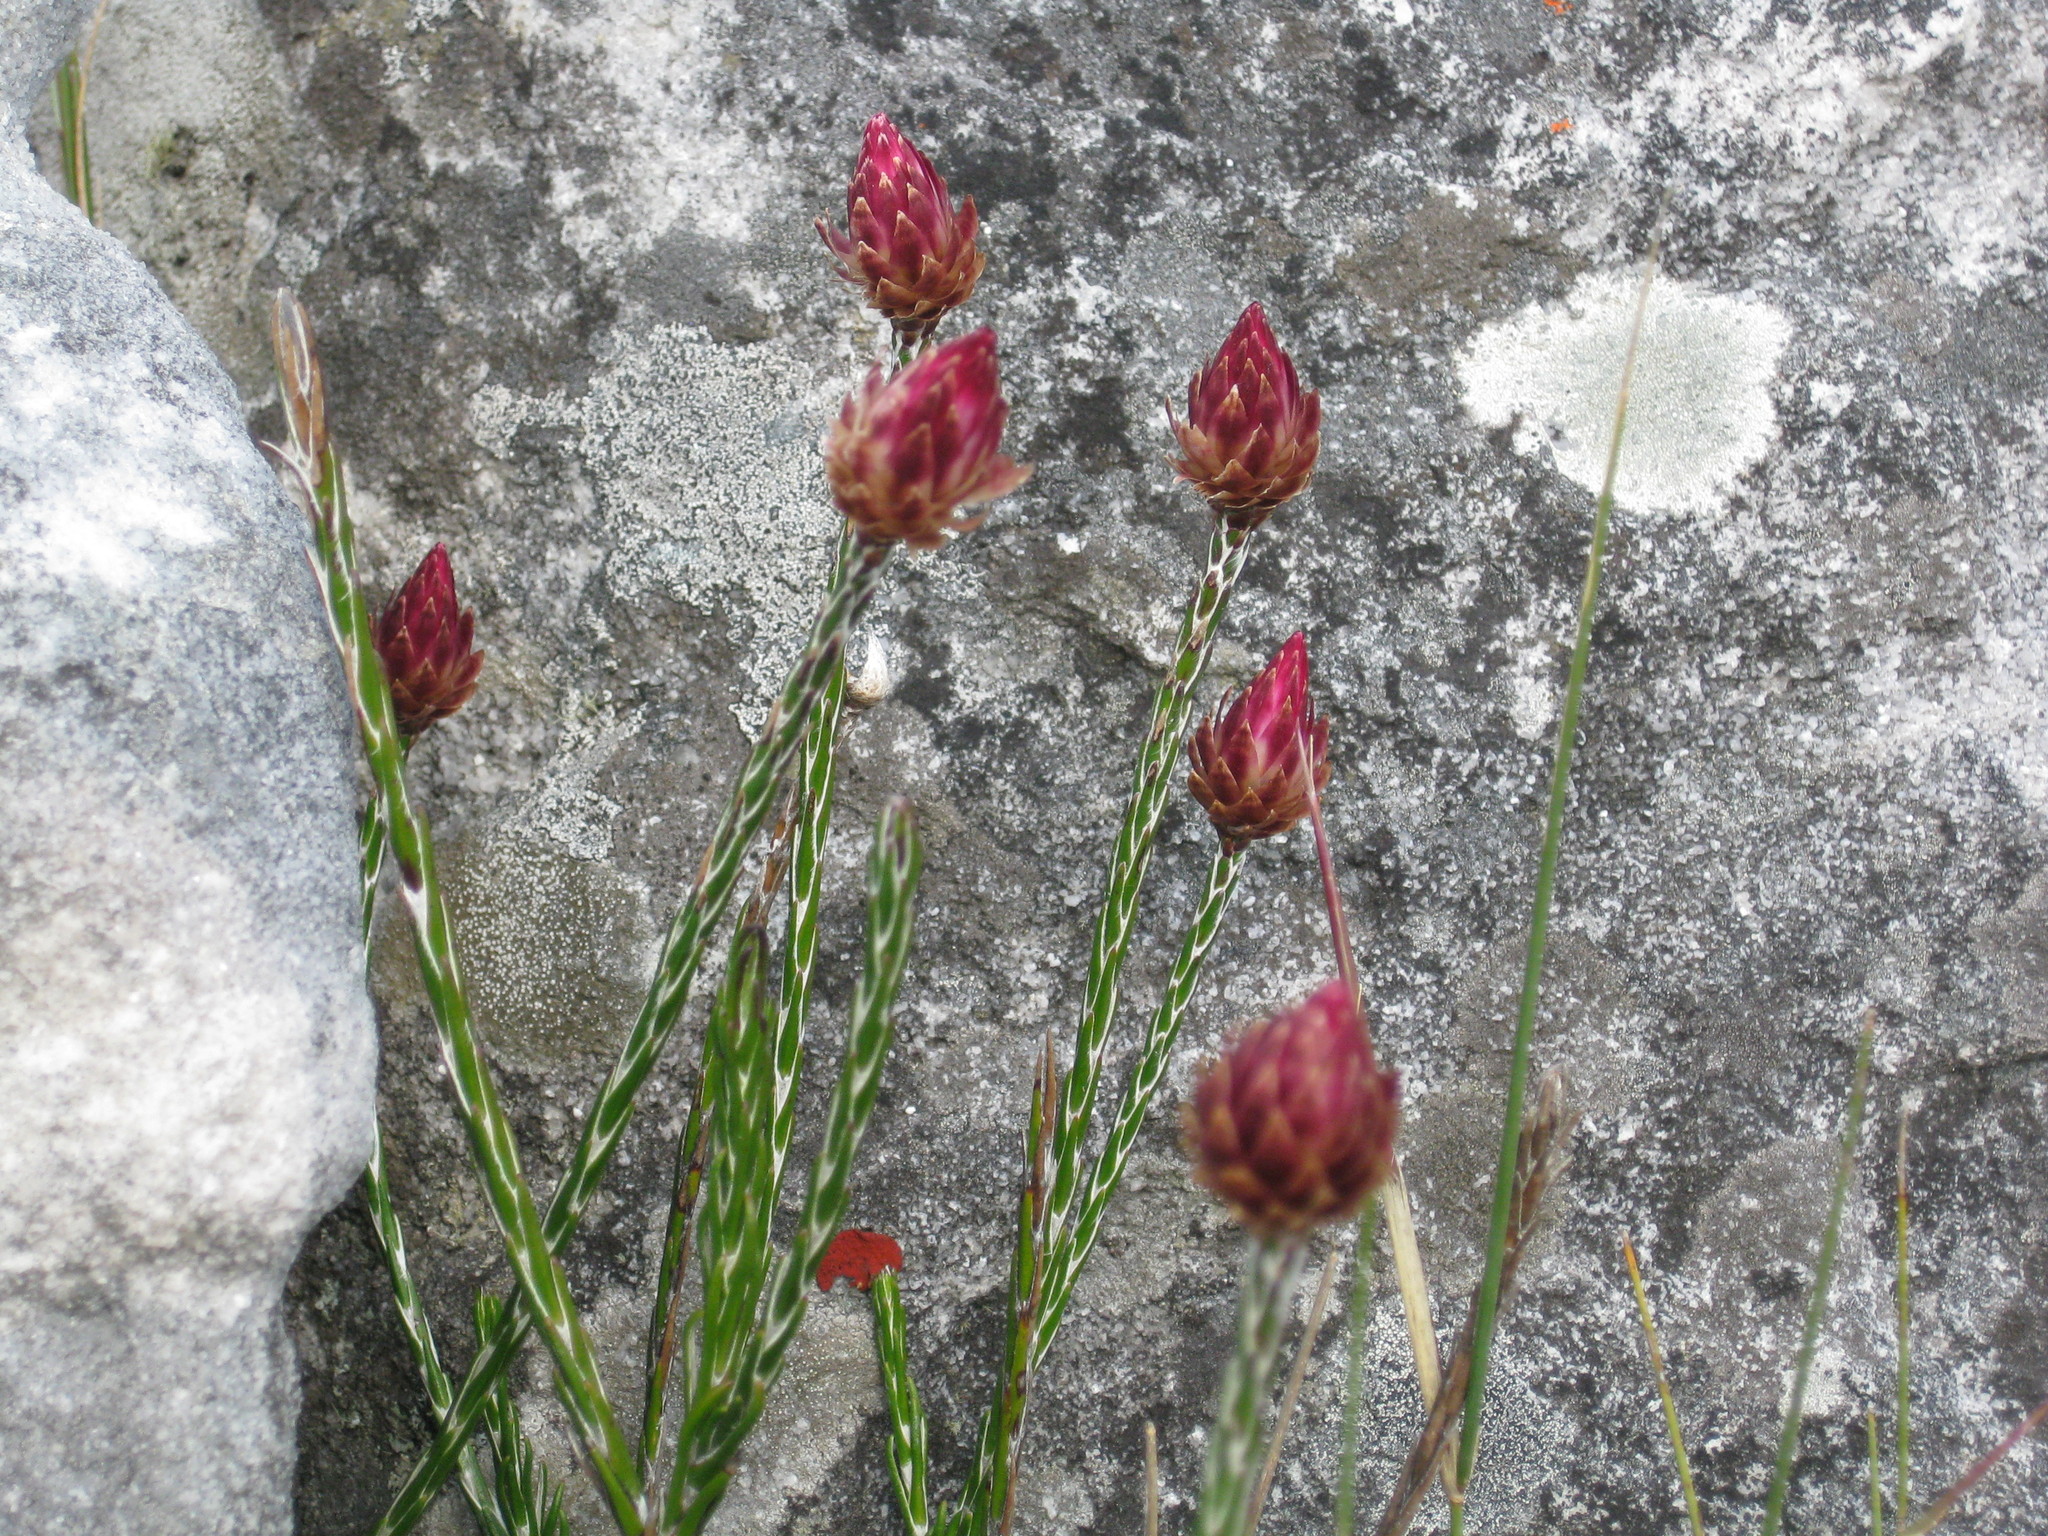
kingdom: Plantae
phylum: Tracheophyta
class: Magnoliopsida
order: Asterales
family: Asteraceae
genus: Edmondia
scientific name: Edmondia sesamoides
